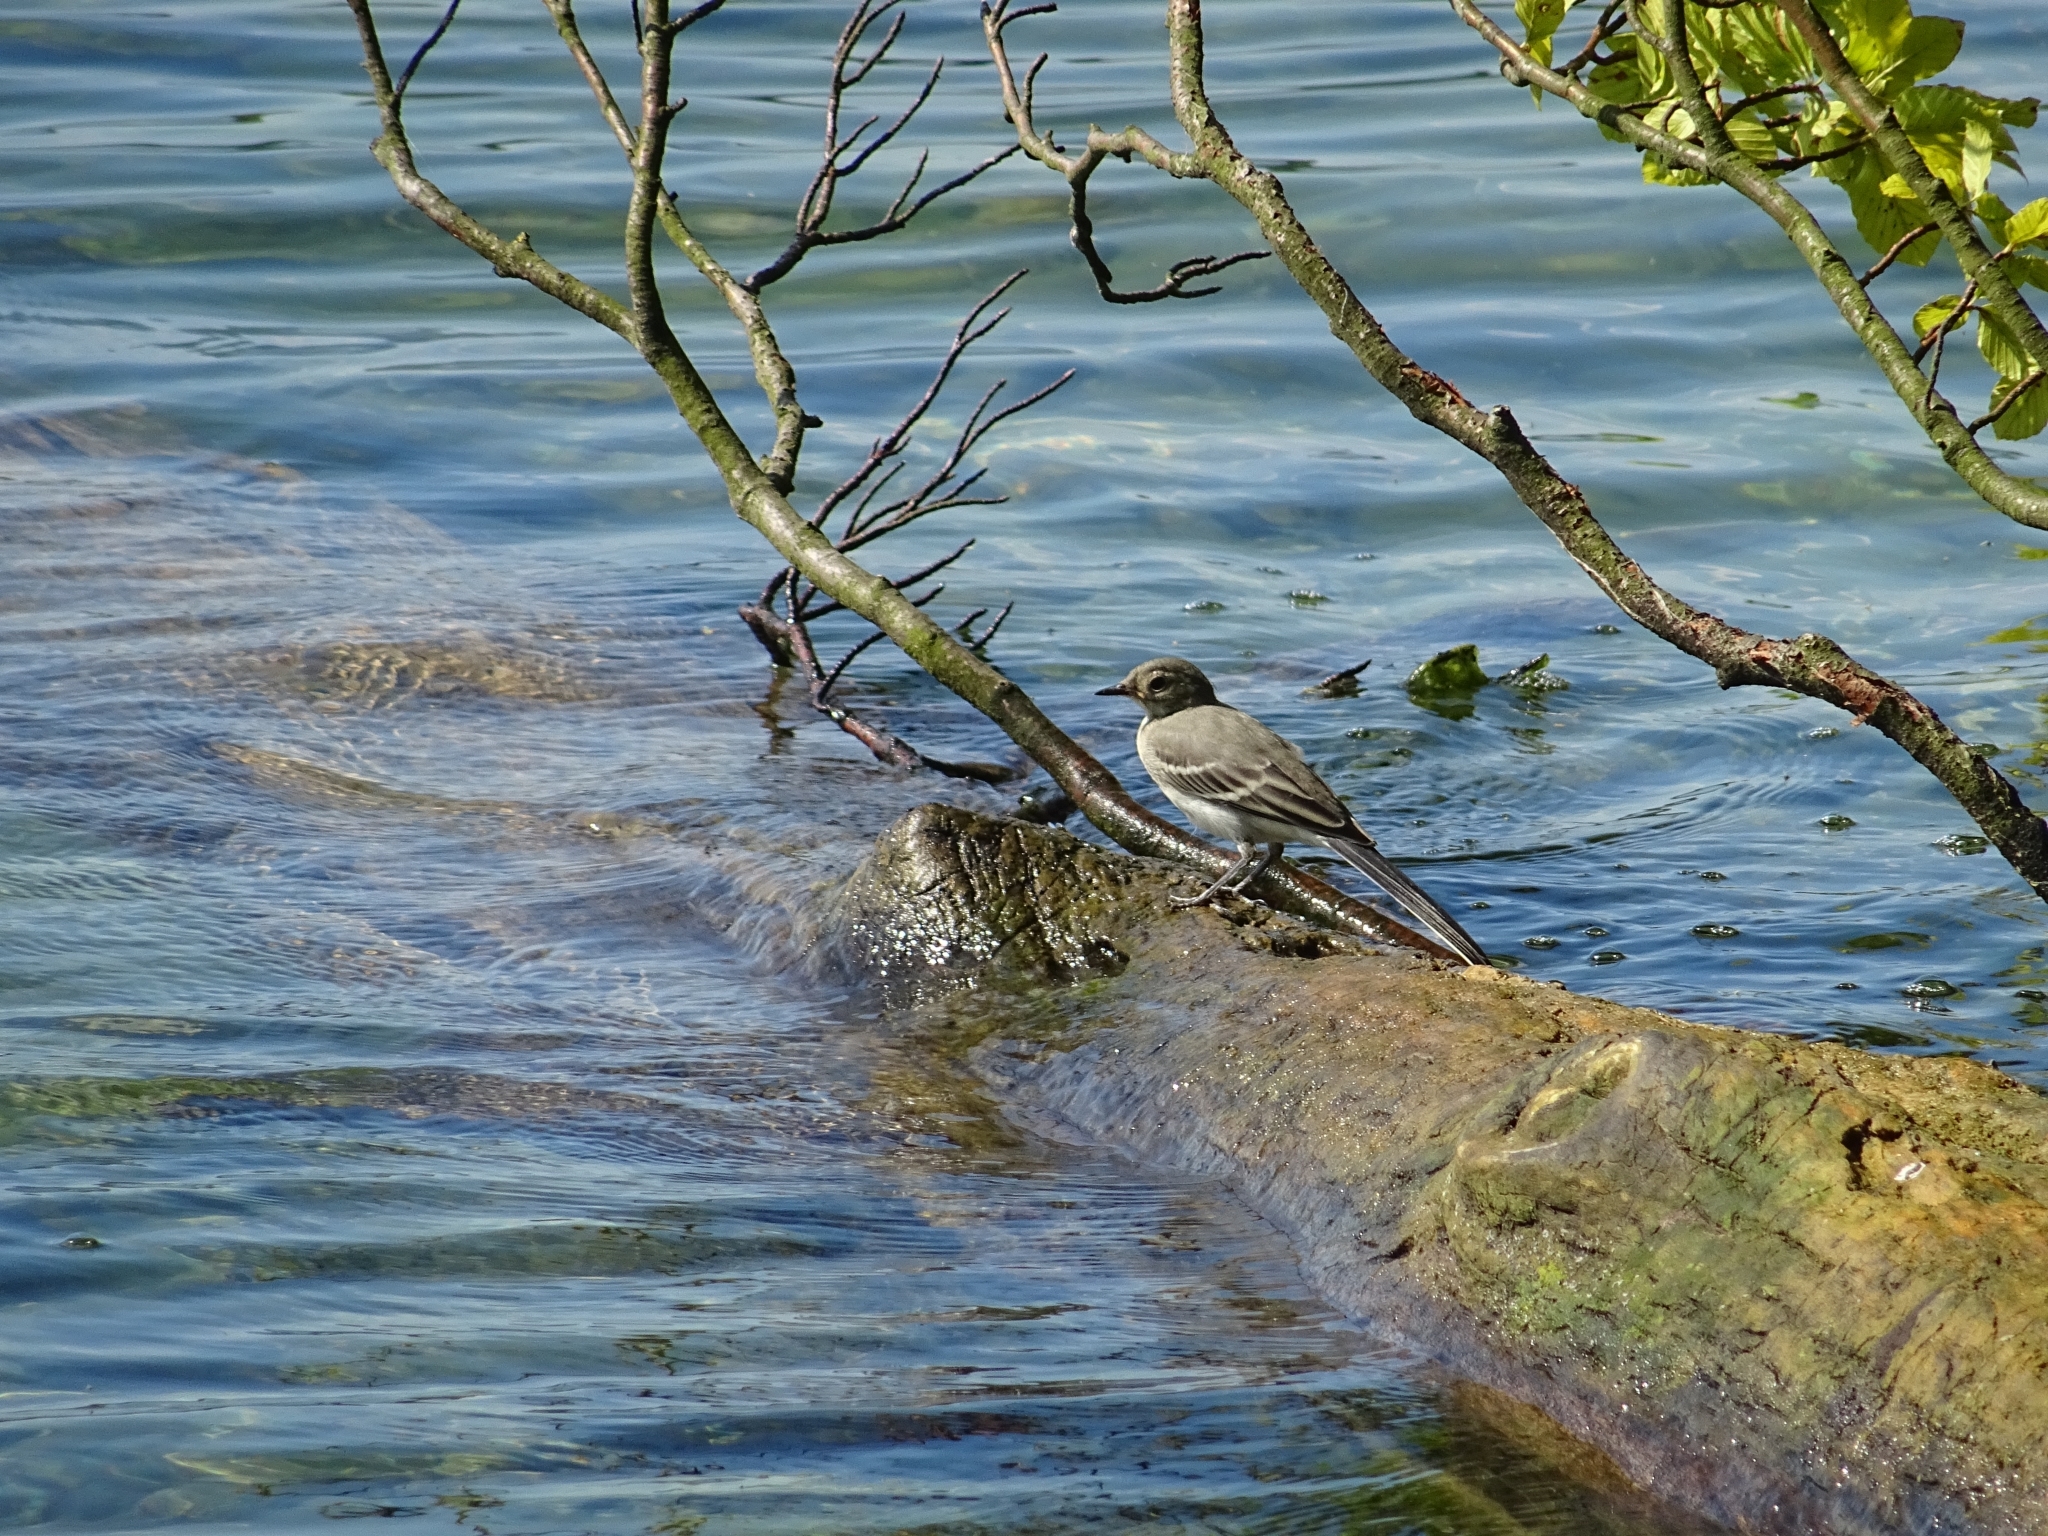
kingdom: Animalia
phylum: Chordata
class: Aves
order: Passeriformes
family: Motacillidae
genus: Motacilla
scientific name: Motacilla alba
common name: White wagtail
